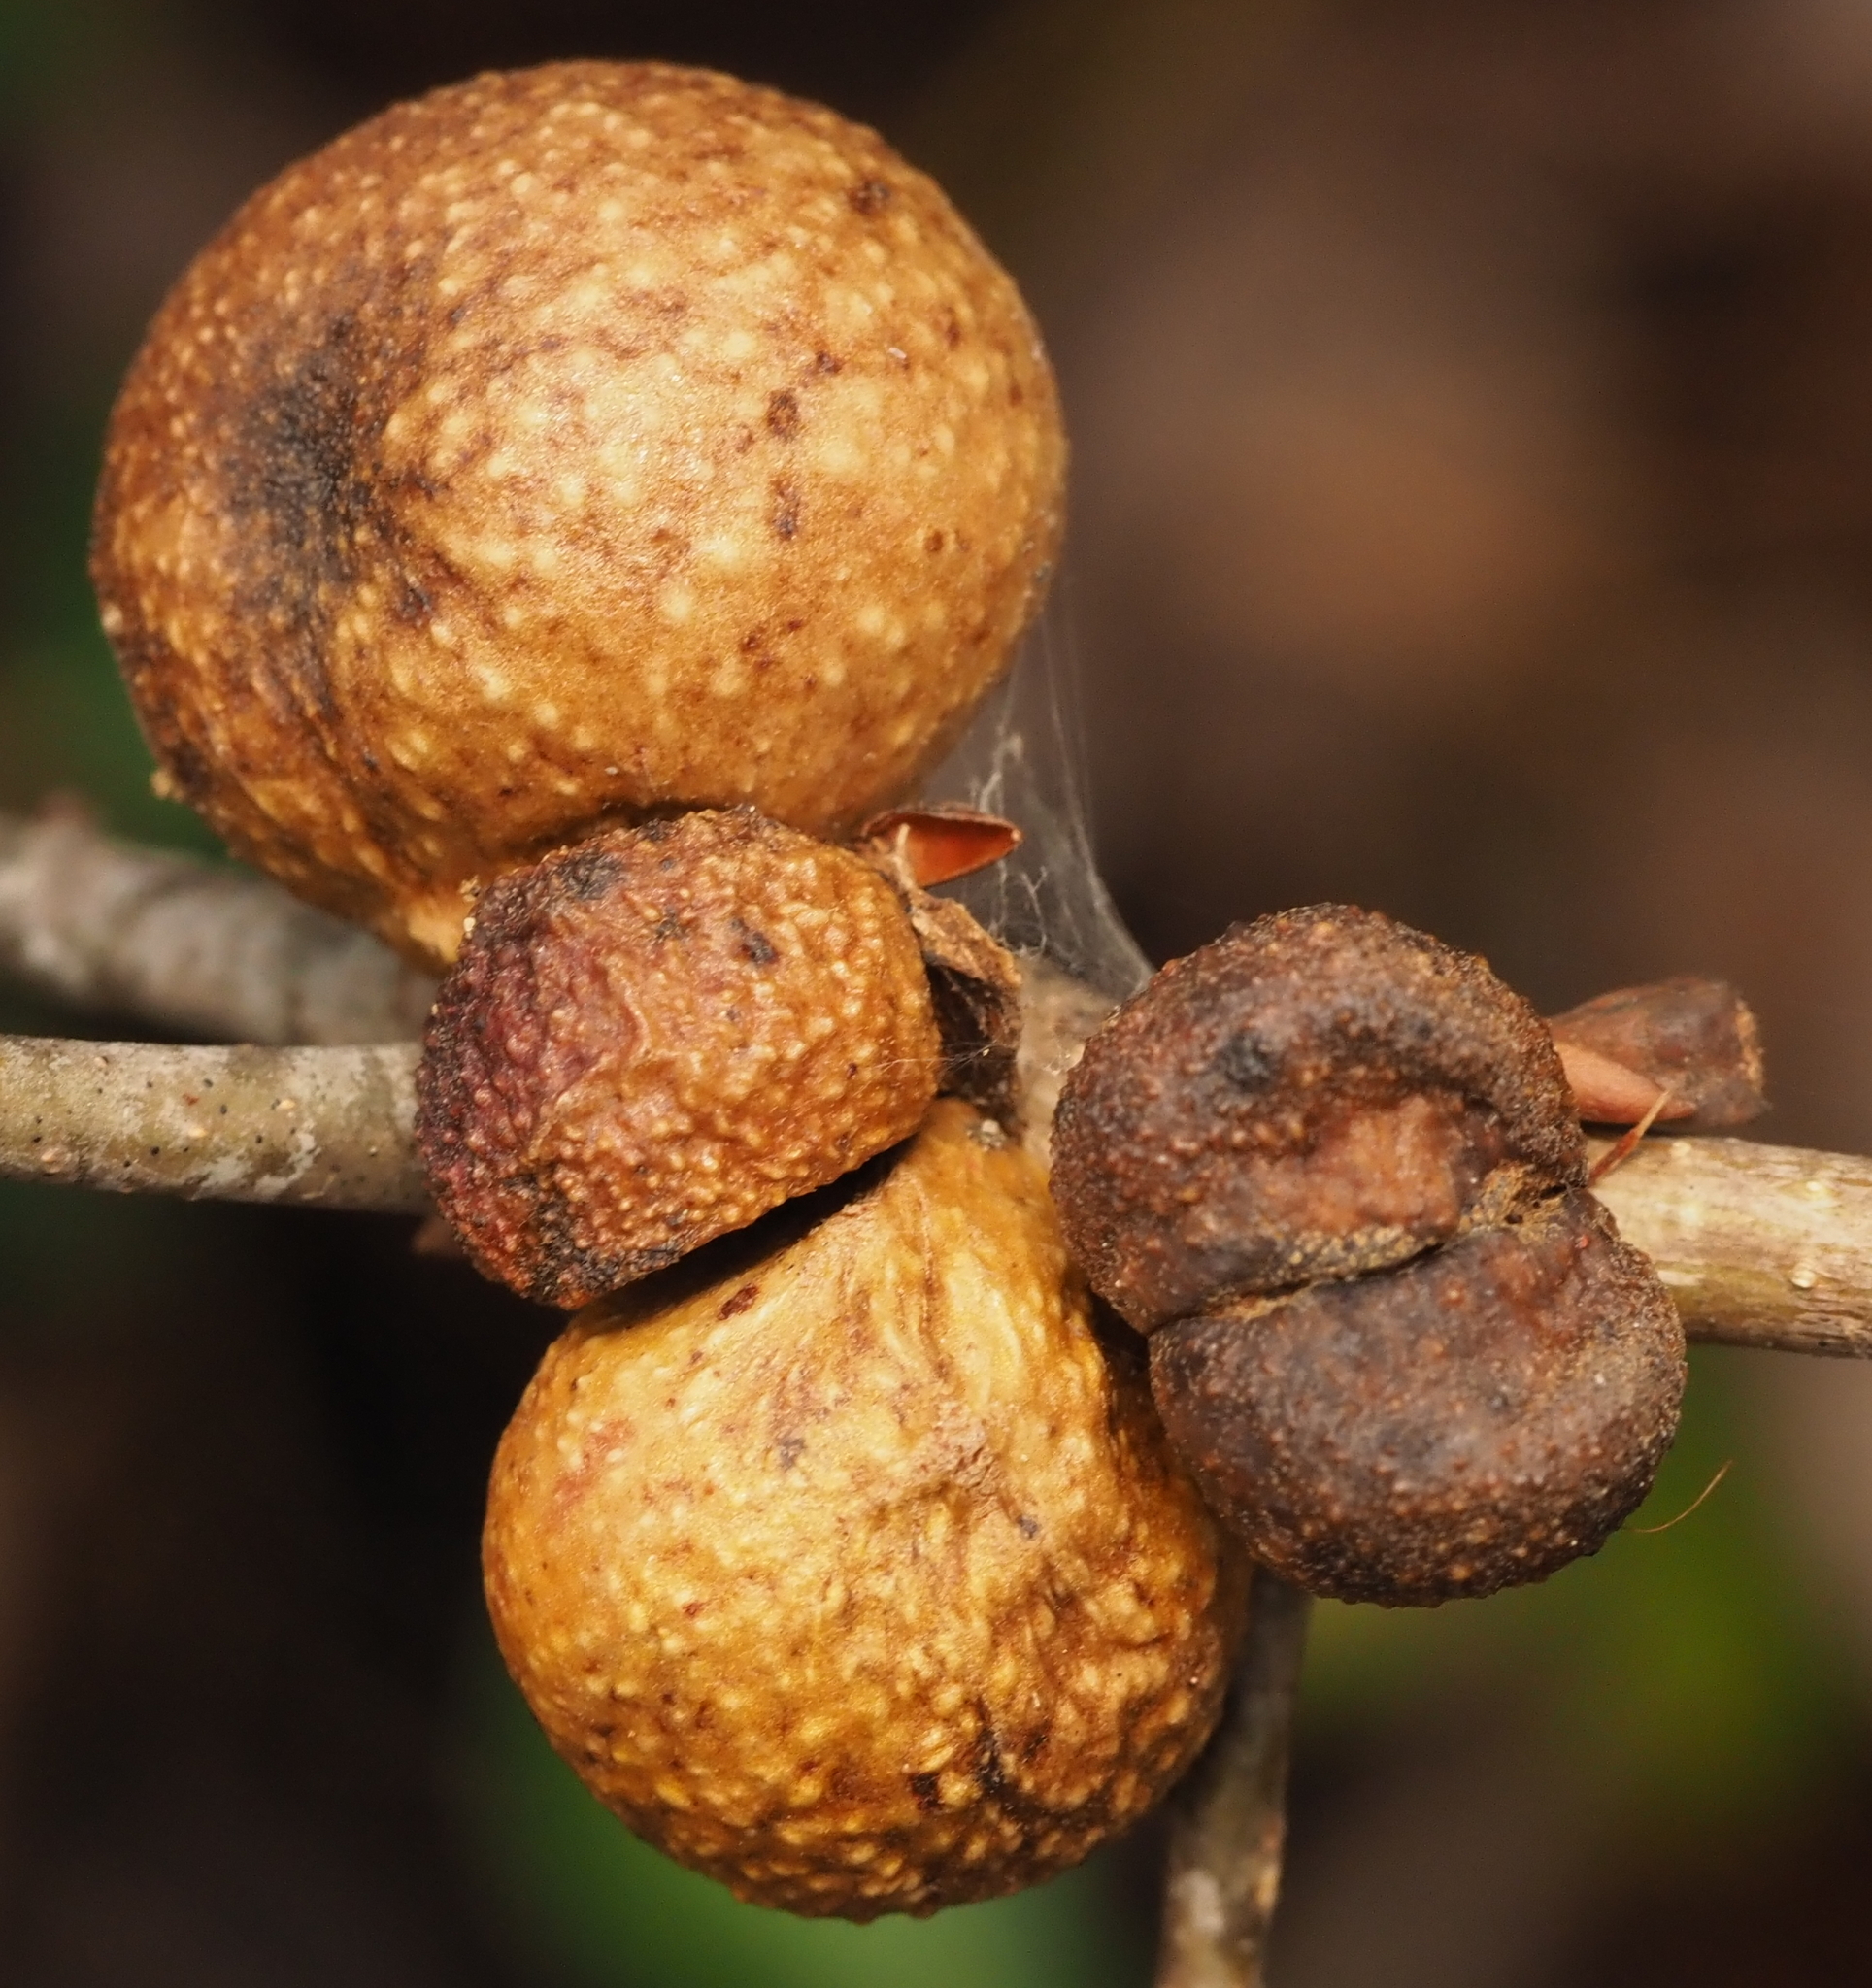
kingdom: Animalia
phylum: Arthropoda
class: Insecta
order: Hymenoptera
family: Cynipidae
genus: Disholcaspis
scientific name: Disholcaspis quercusglobulus
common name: Round bullet gall wasp
